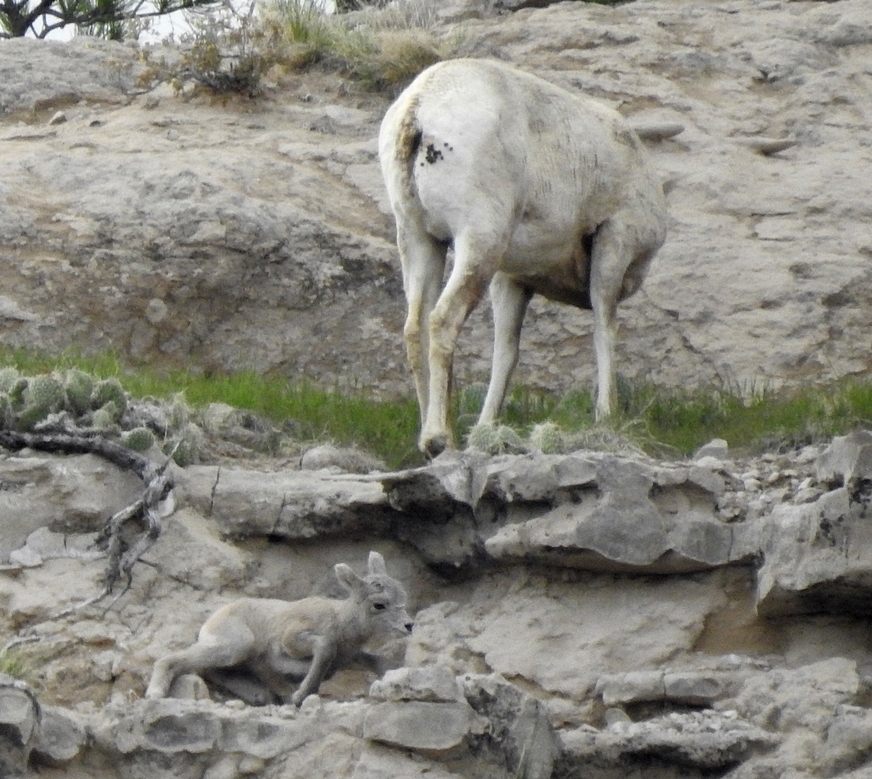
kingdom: Animalia
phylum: Chordata
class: Mammalia
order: Artiodactyla
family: Bovidae
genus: Ovis
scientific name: Ovis canadensis
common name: Bighorn sheep
